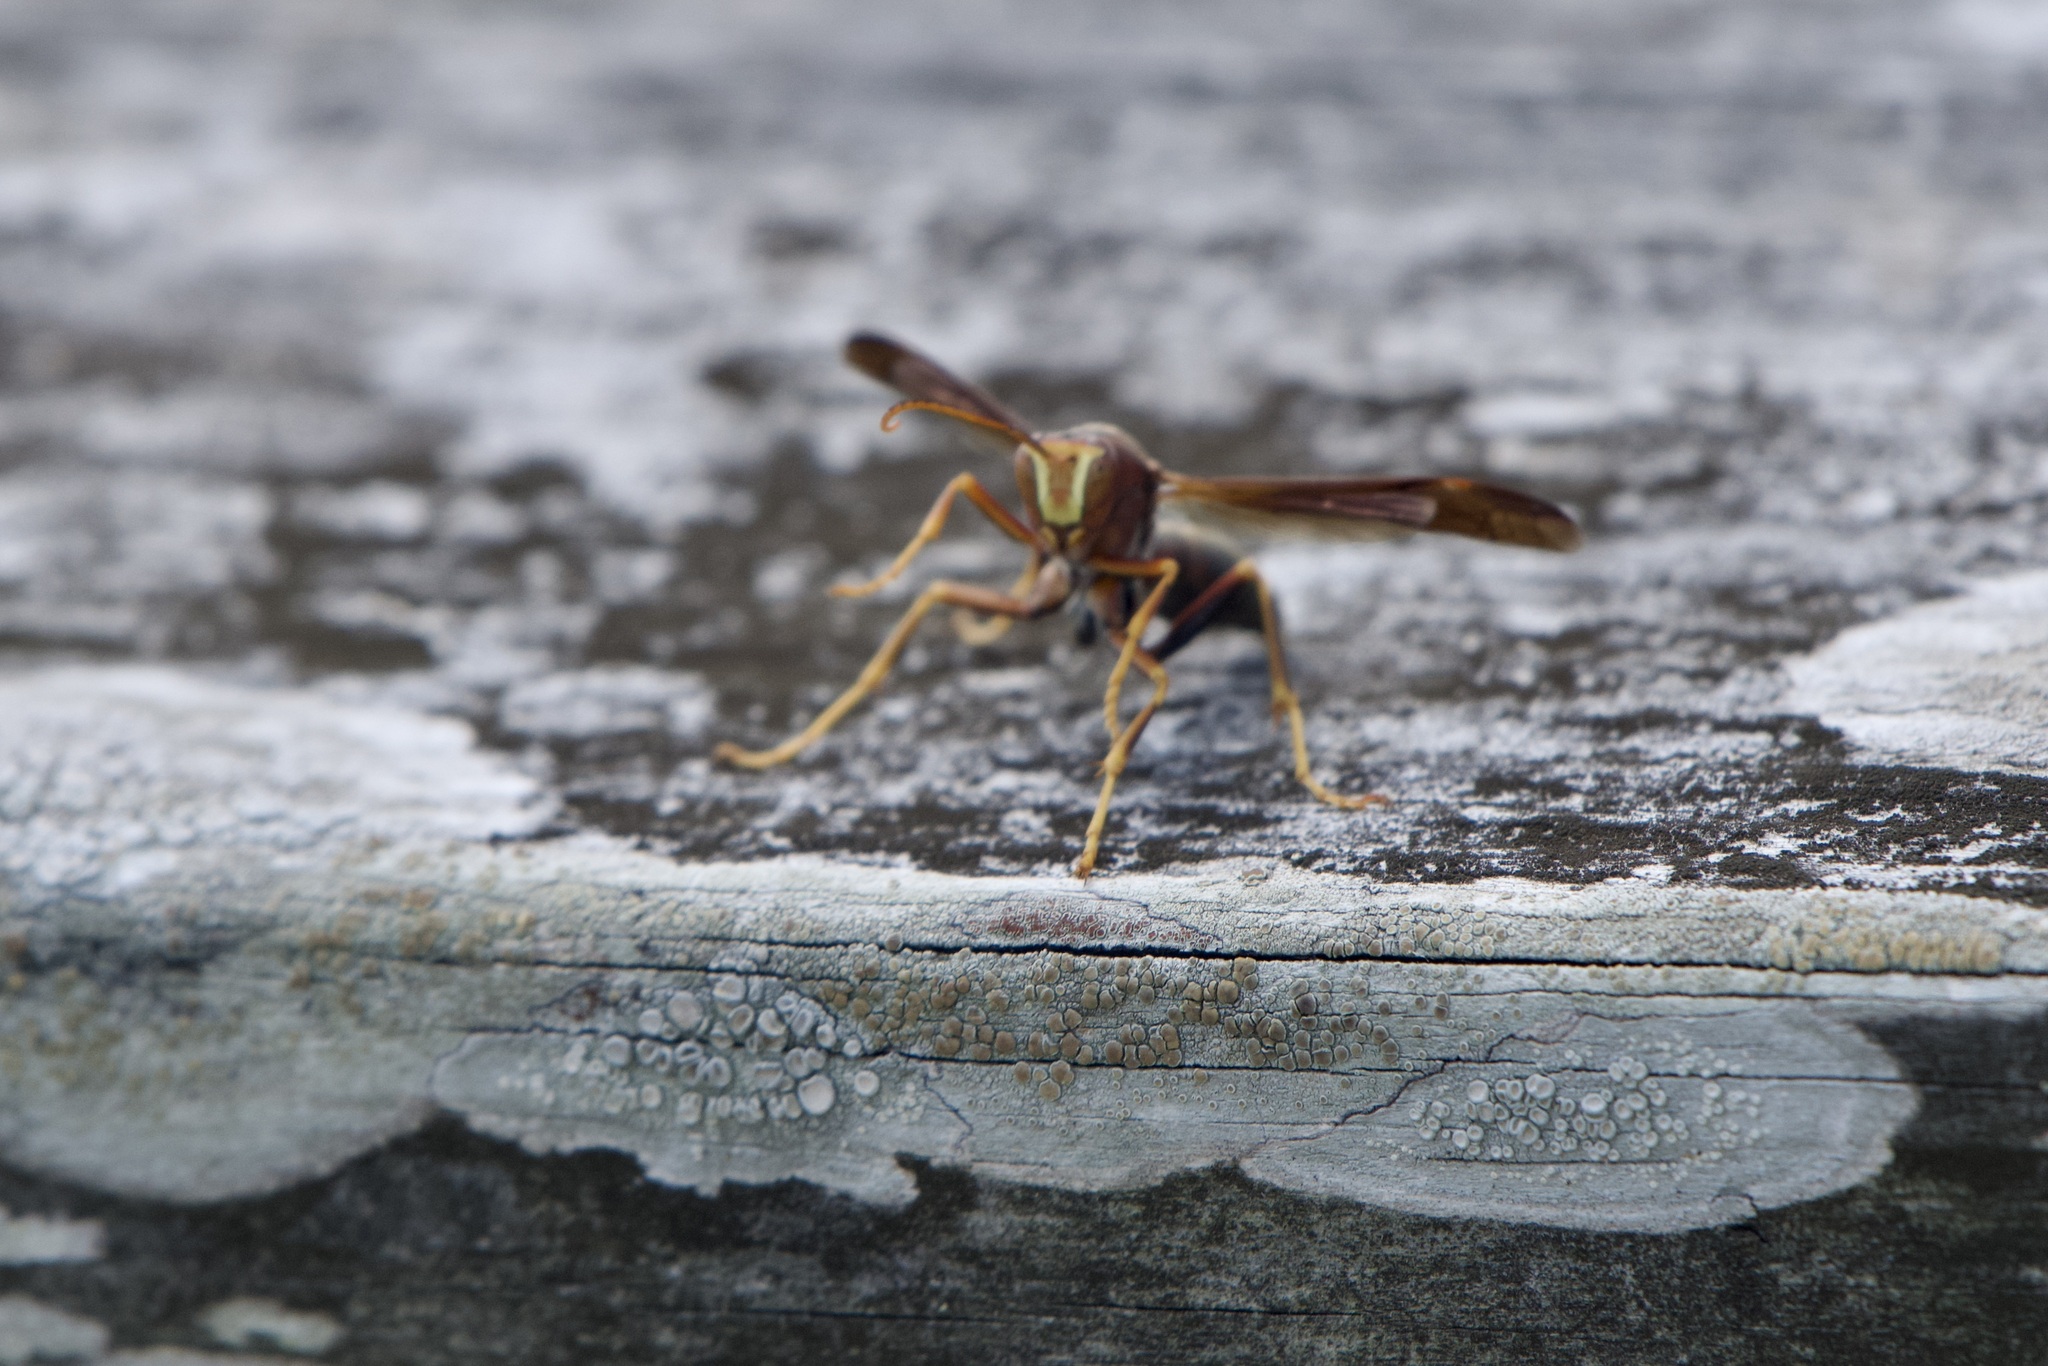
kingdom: Animalia
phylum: Arthropoda
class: Insecta
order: Hymenoptera
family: Eumenidae
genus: Polistes
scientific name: Polistes metricus
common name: Metric paper wasp
